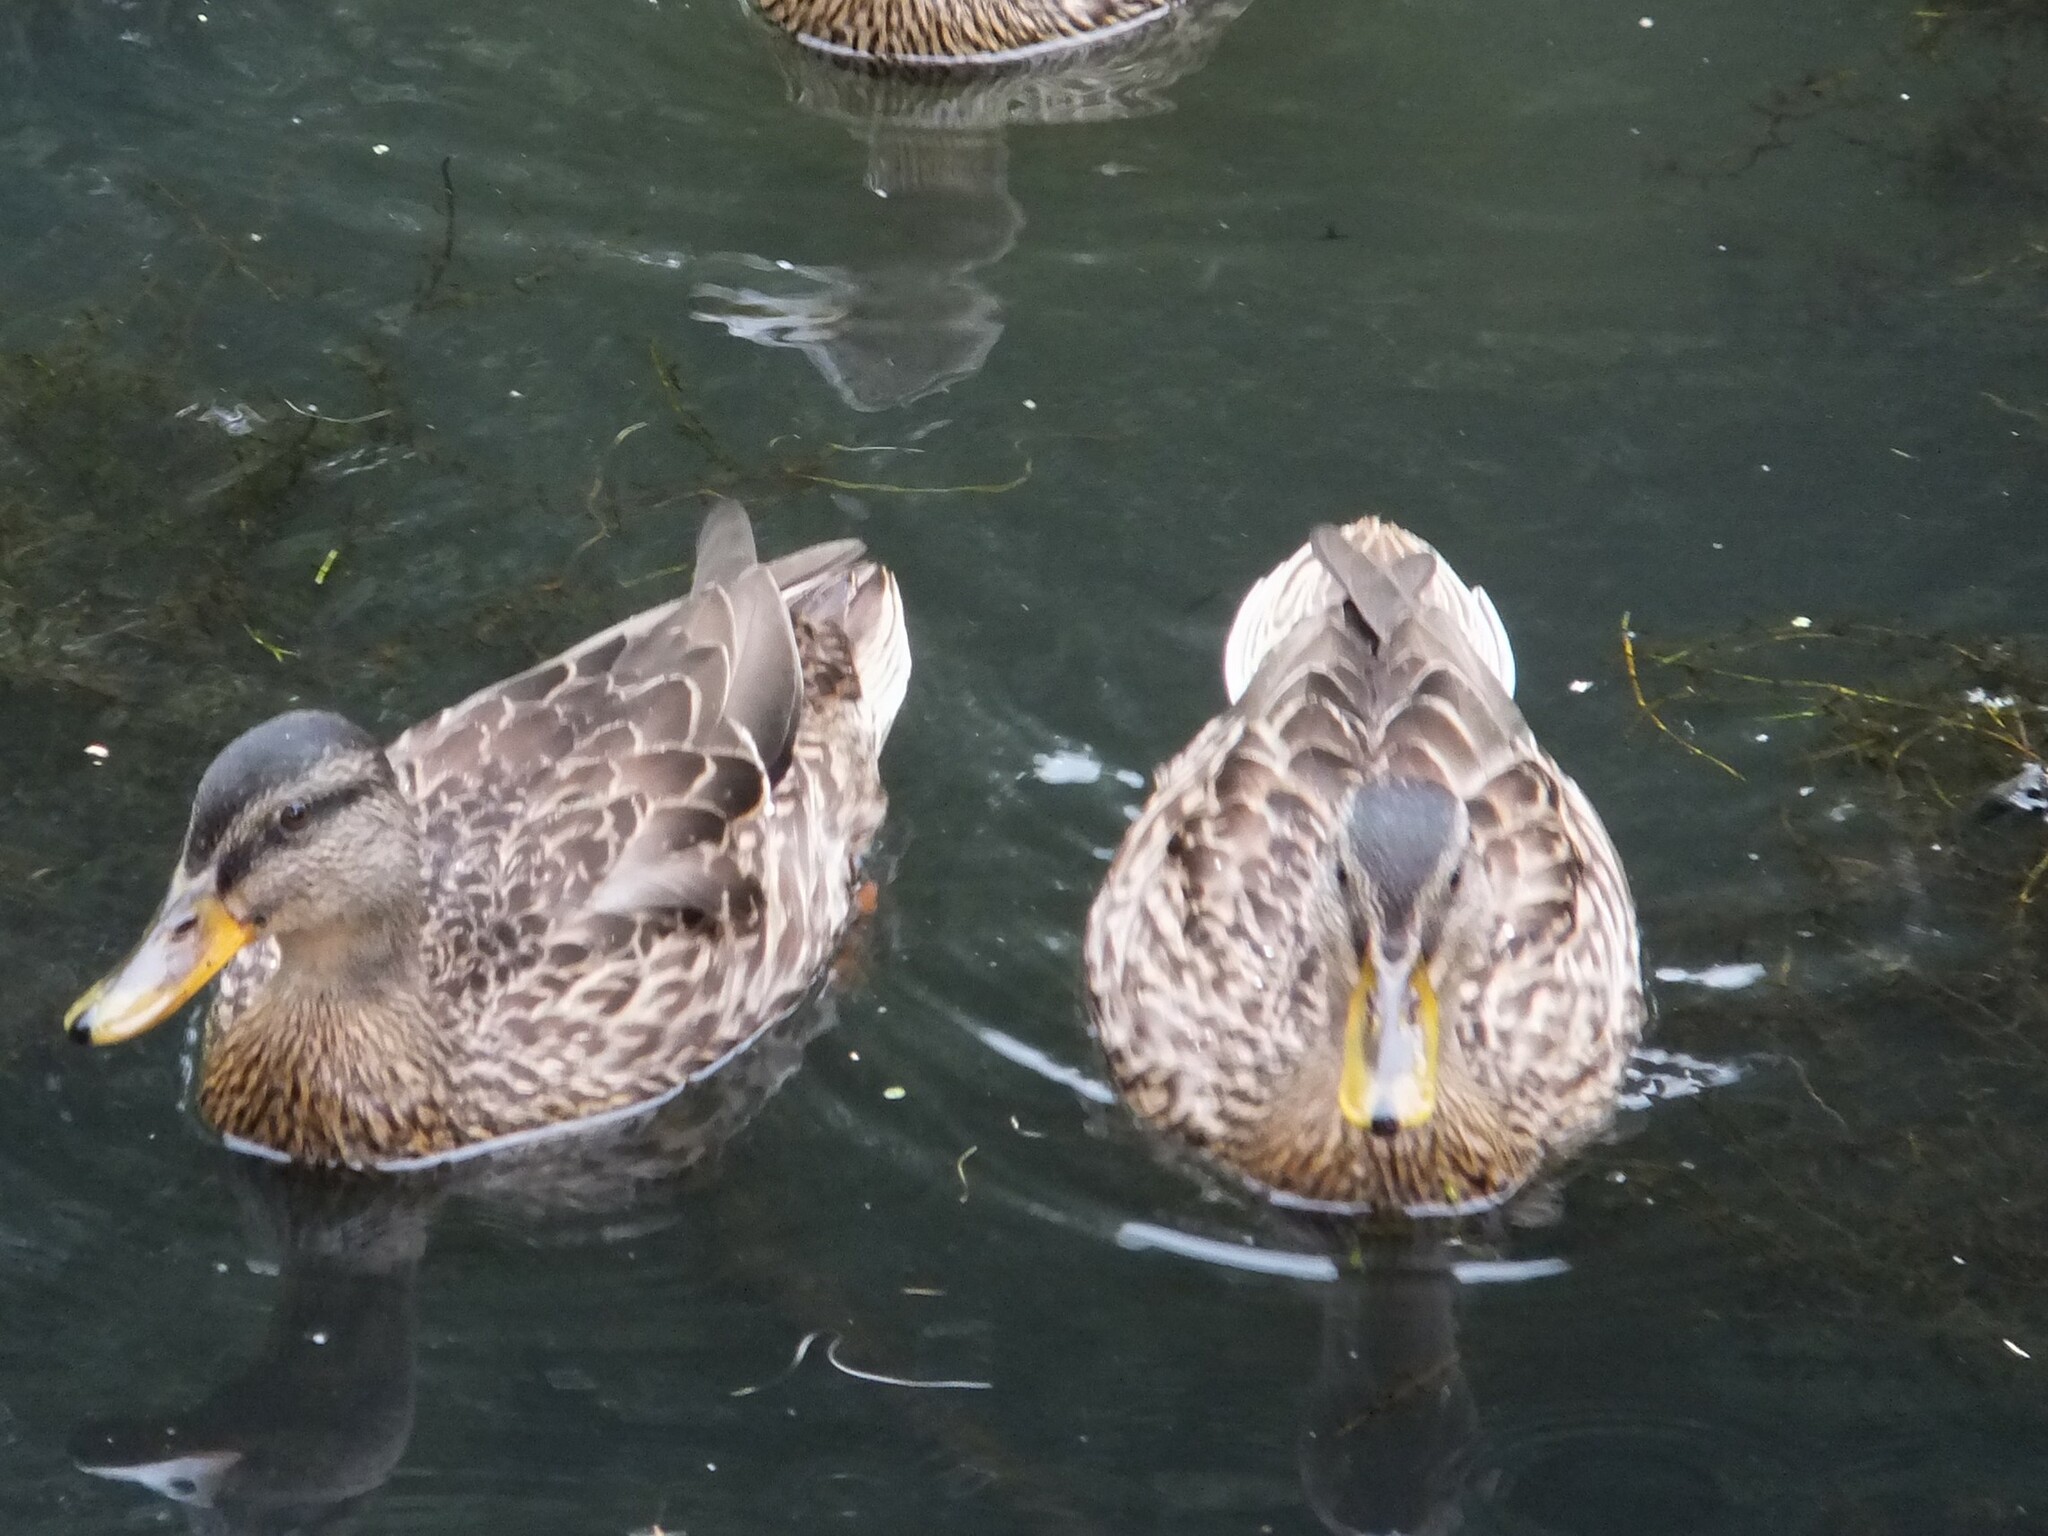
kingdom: Animalia
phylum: Chordata
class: Aves
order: Anseriformes
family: Anatidae
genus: Anas
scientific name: Anas platyrhynchos
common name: Mallard
